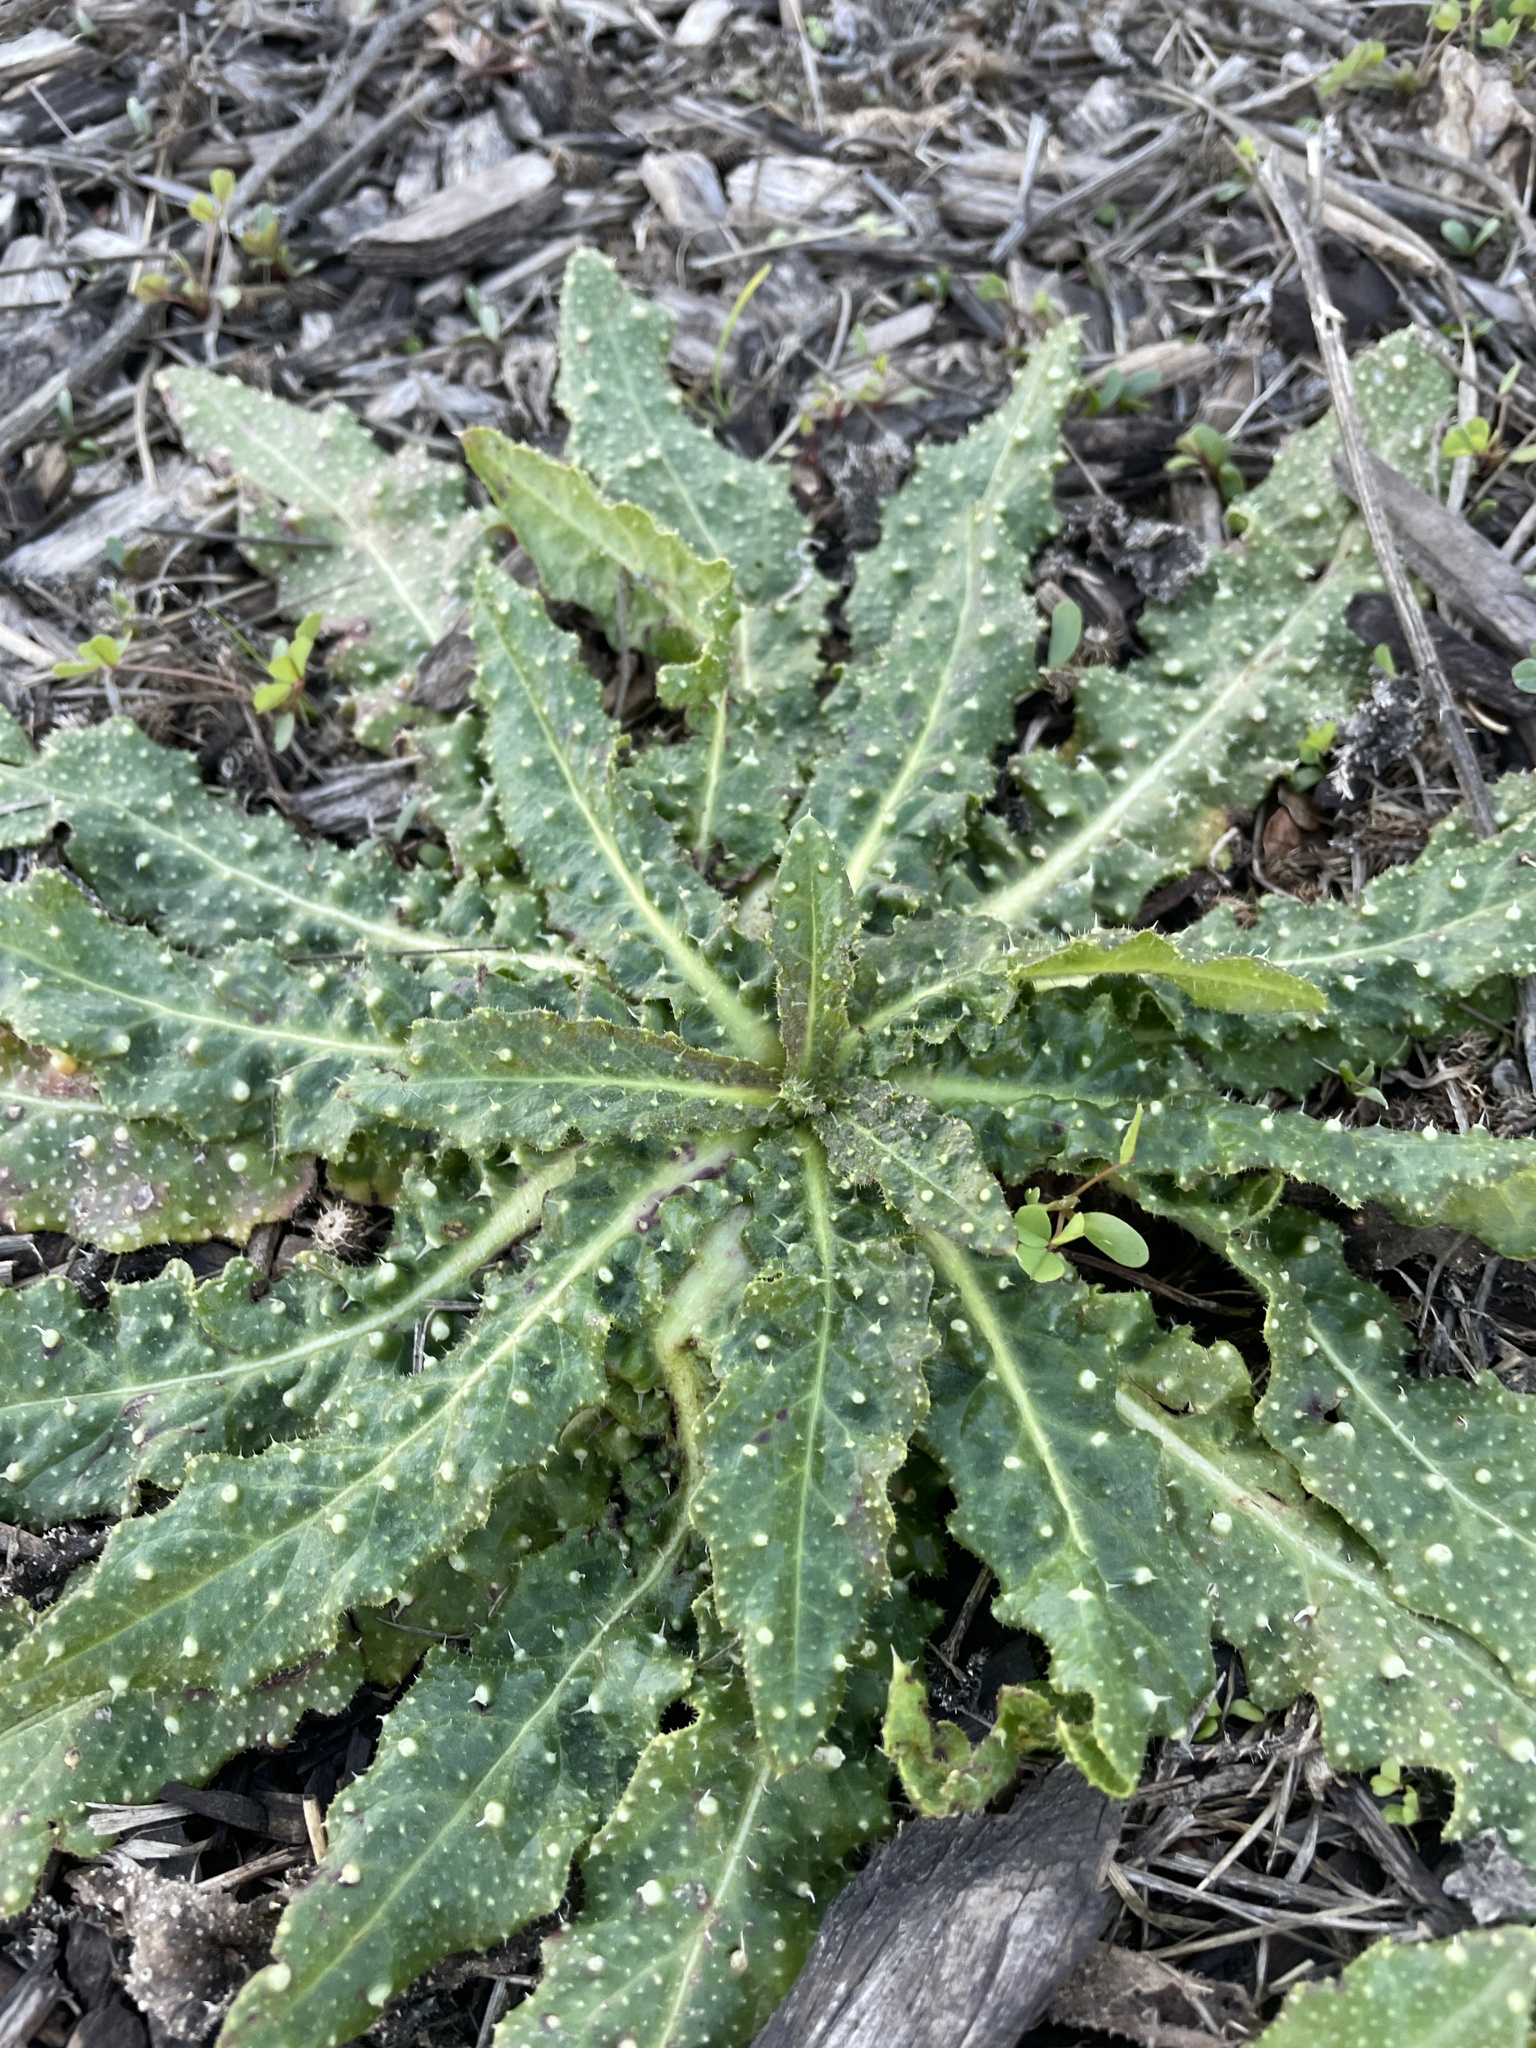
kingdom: Plantae
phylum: Tracheophyta
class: Magnoliopsida
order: Asterales
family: Asteraceae
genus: Helminthotheca
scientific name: Helminthotheca echioides
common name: Ox-tongue
